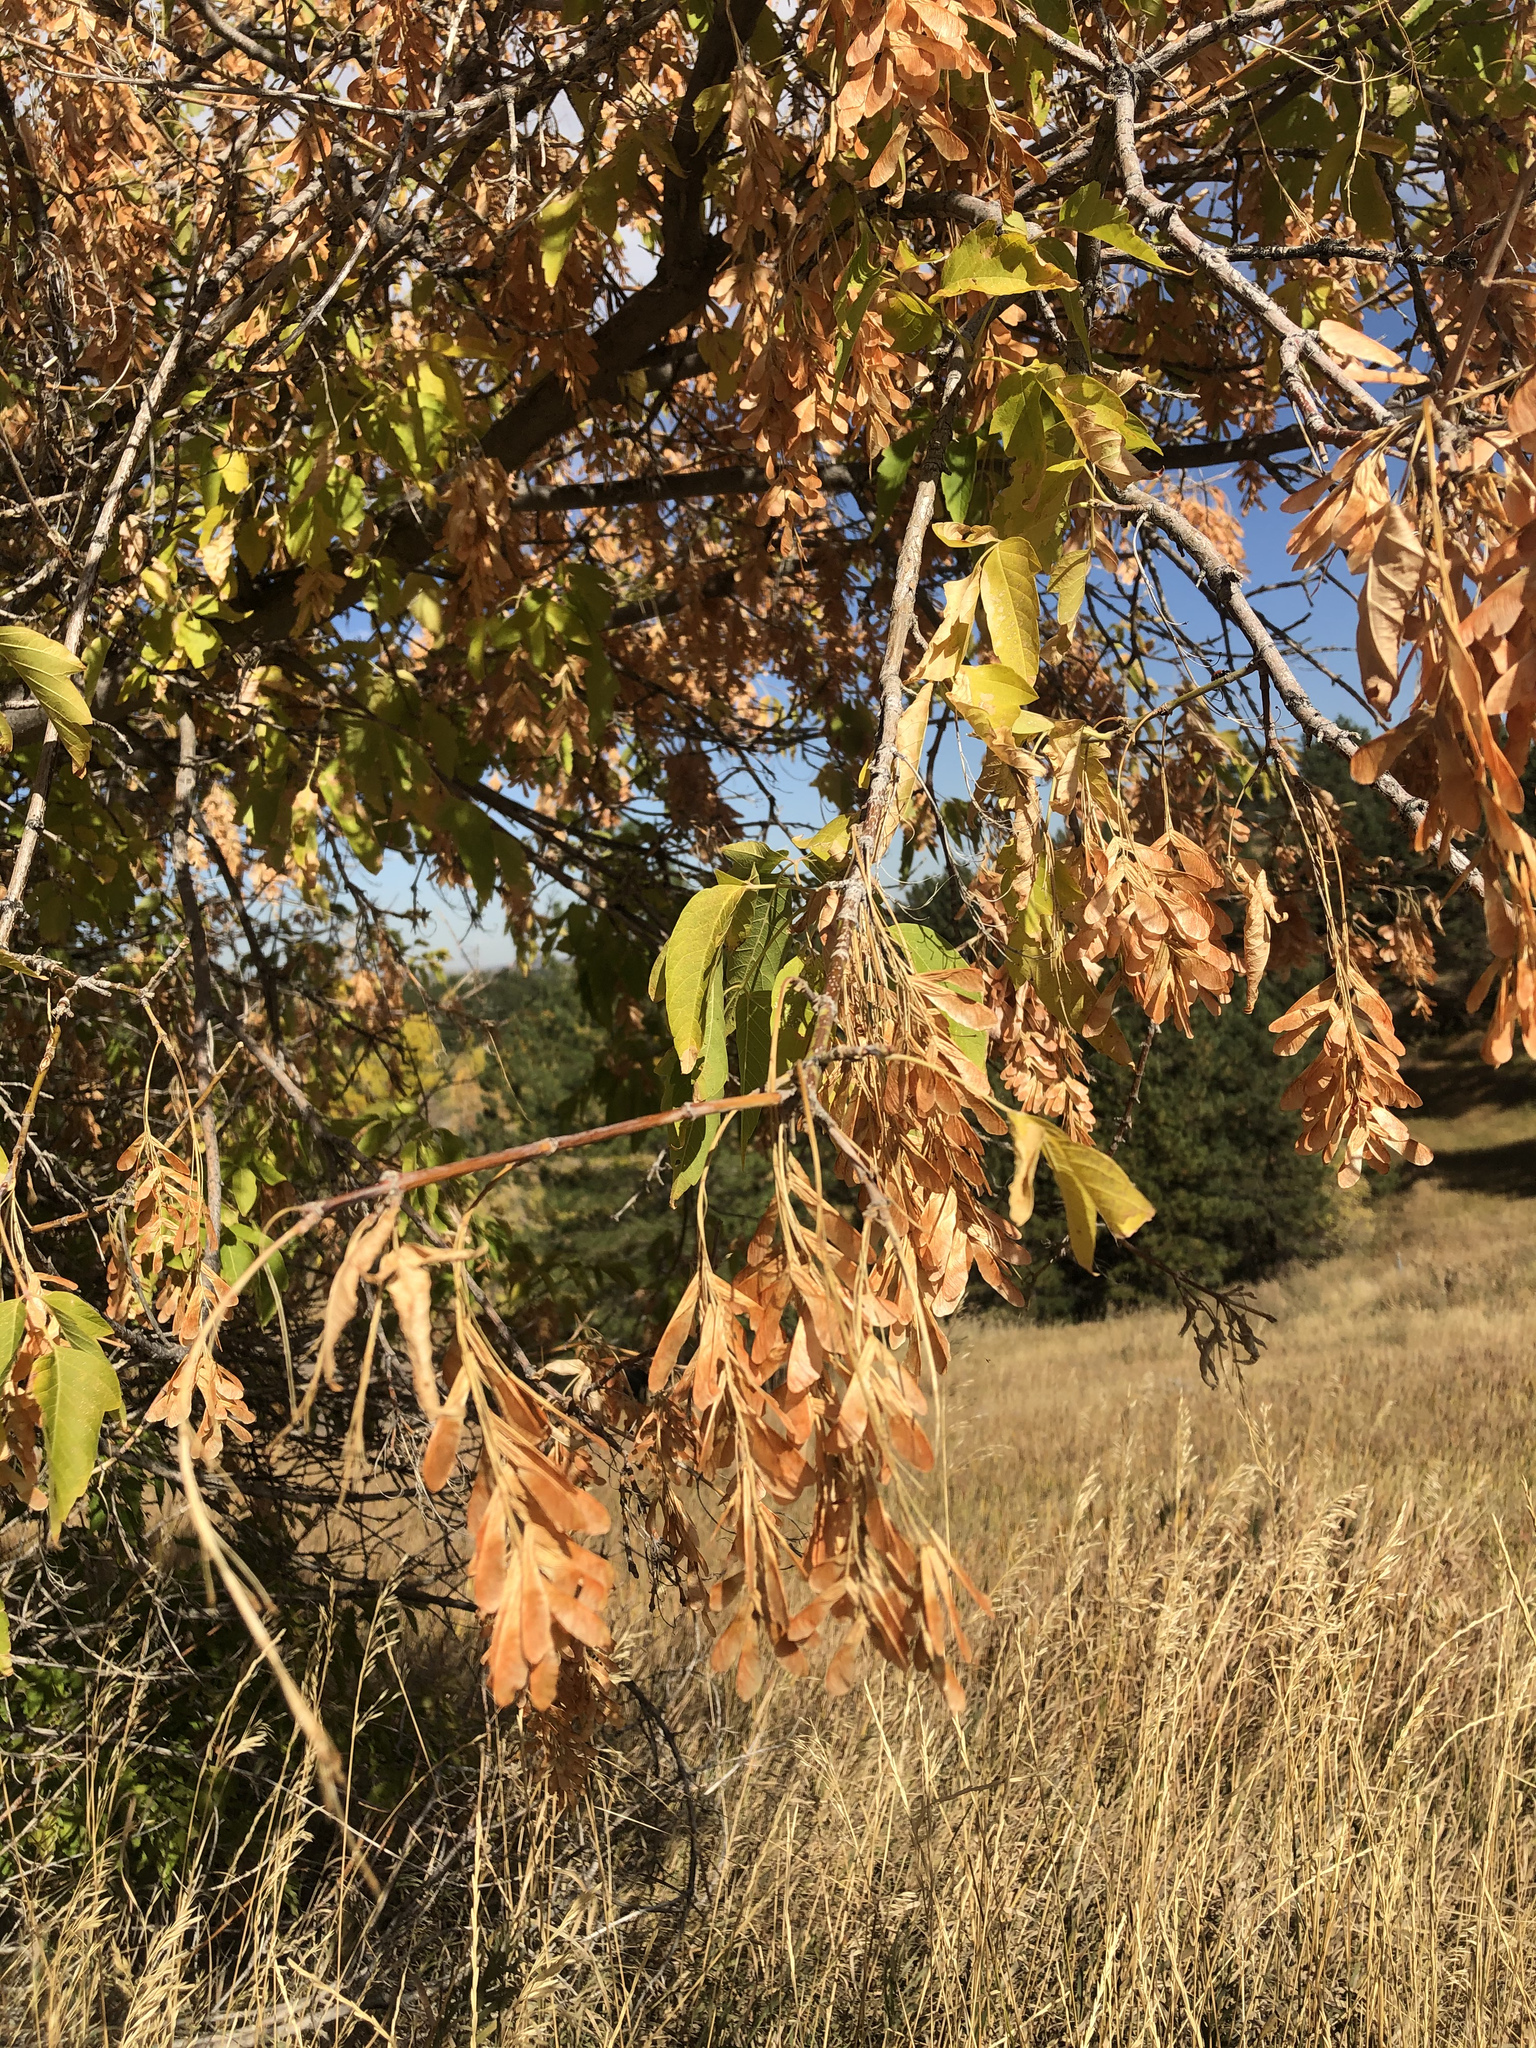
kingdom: Plantae
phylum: Tracheophyta
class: Magnoliopsida
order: Sapindales
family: Sapindaceae
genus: Acer
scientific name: Acer negundo
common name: Ashleaf maple
